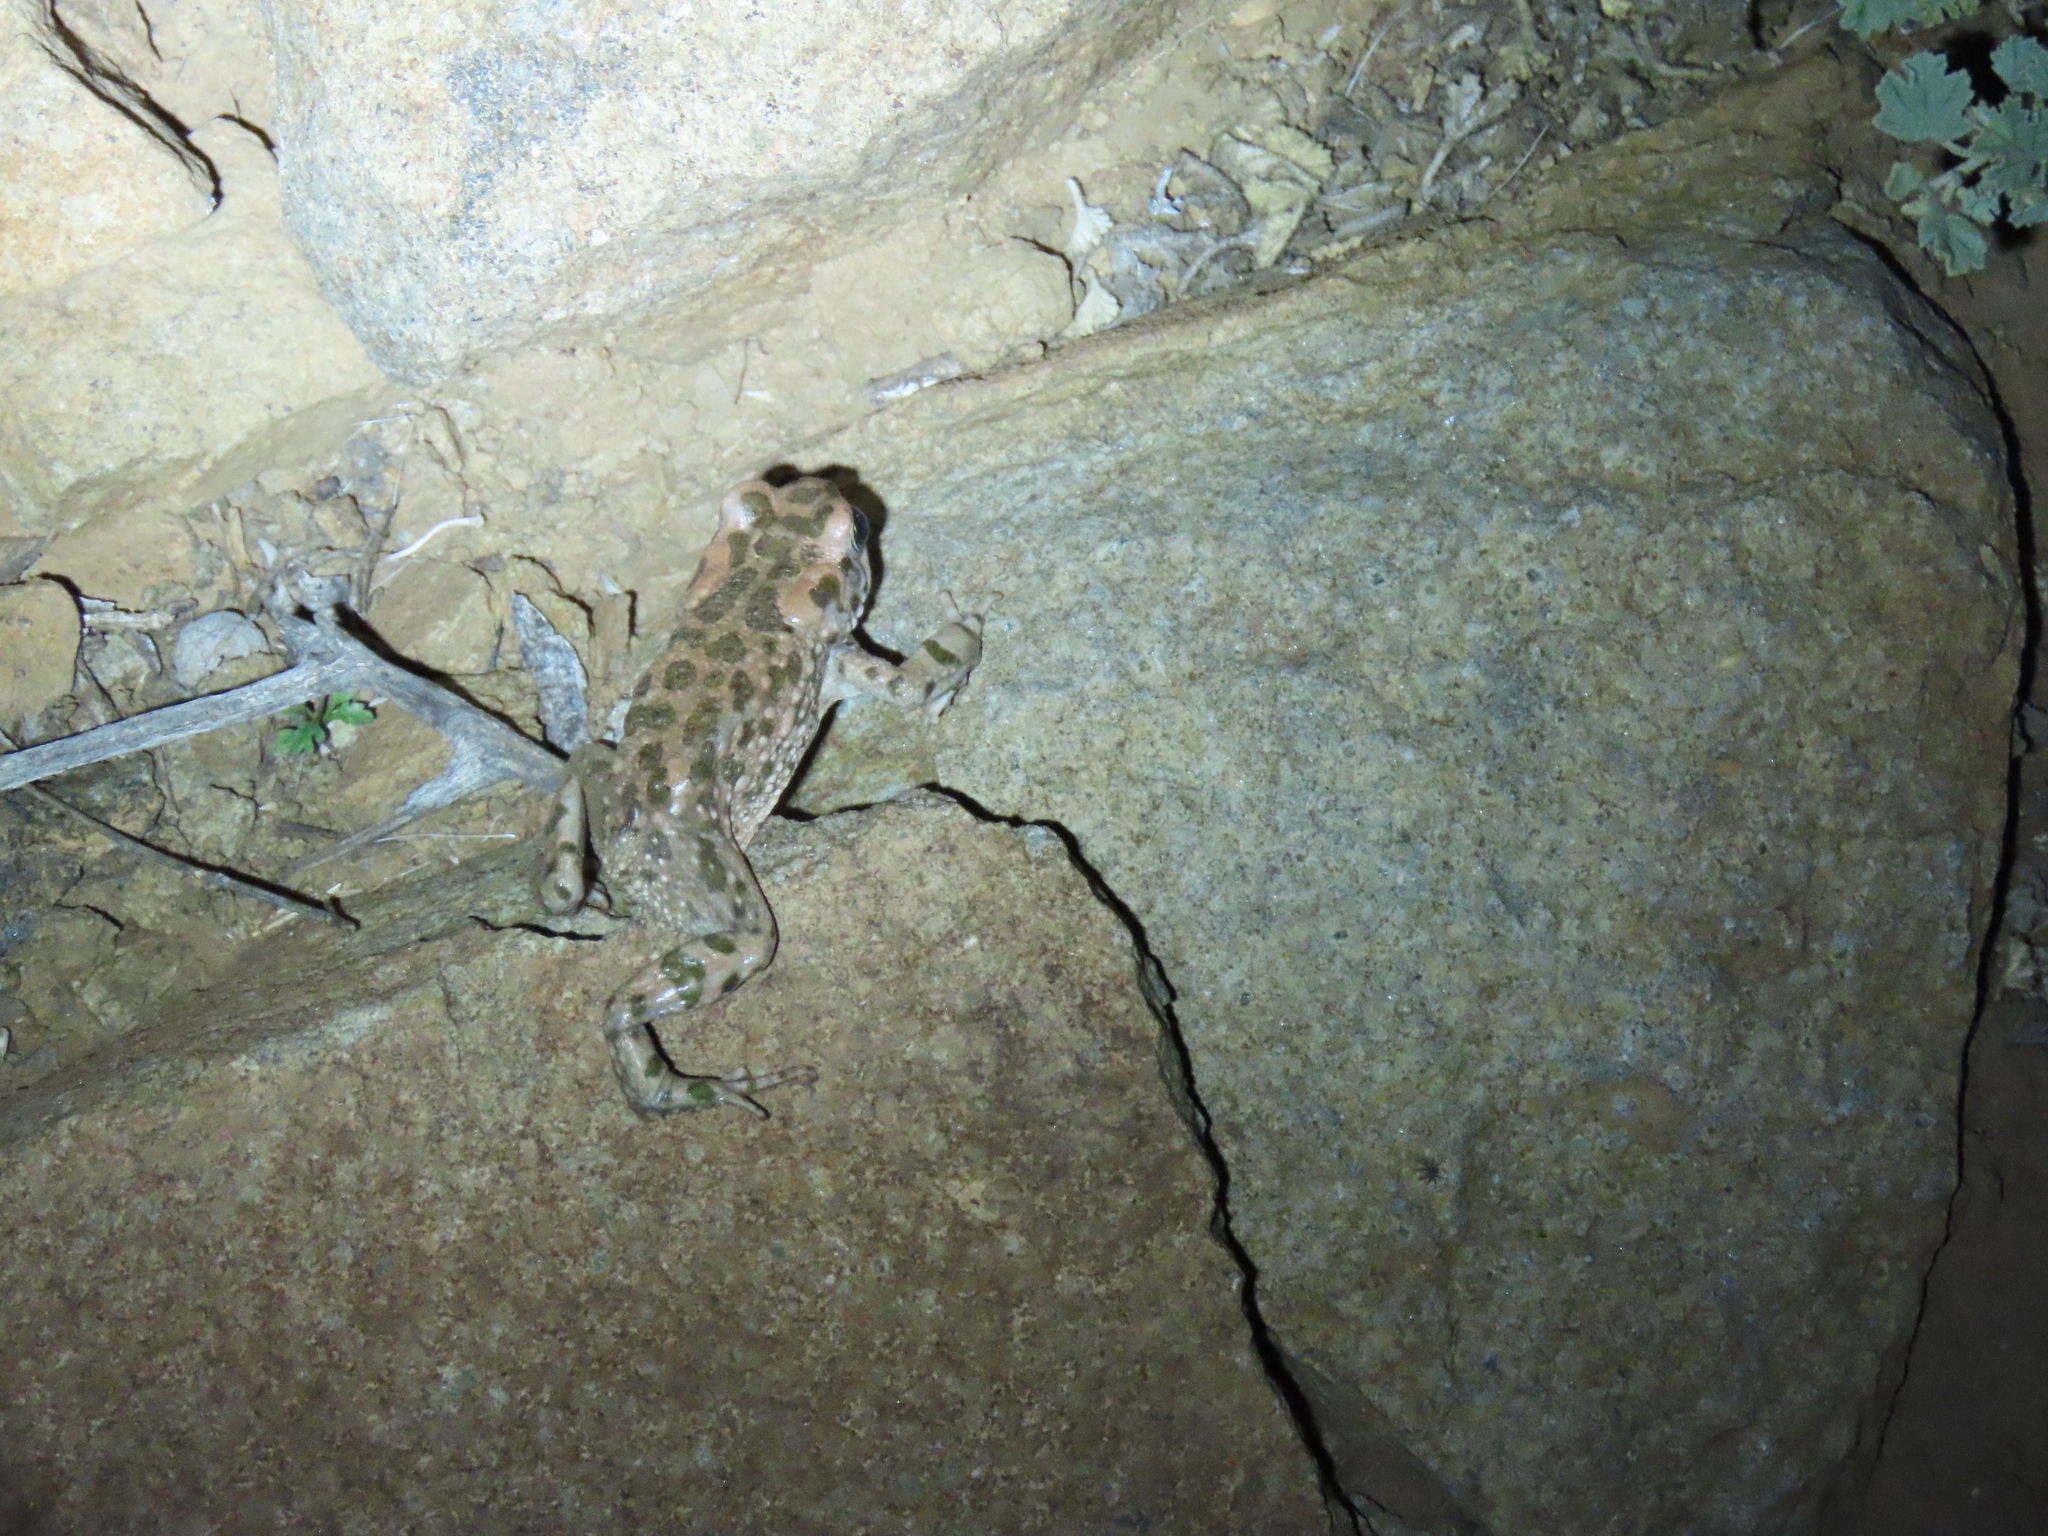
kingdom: Animalia
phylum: Chordata
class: Amphibia
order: Anura
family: Bufonidae
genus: Vandijkophrynus
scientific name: Vandijkophrynus gariepensis
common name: Gariep toad
